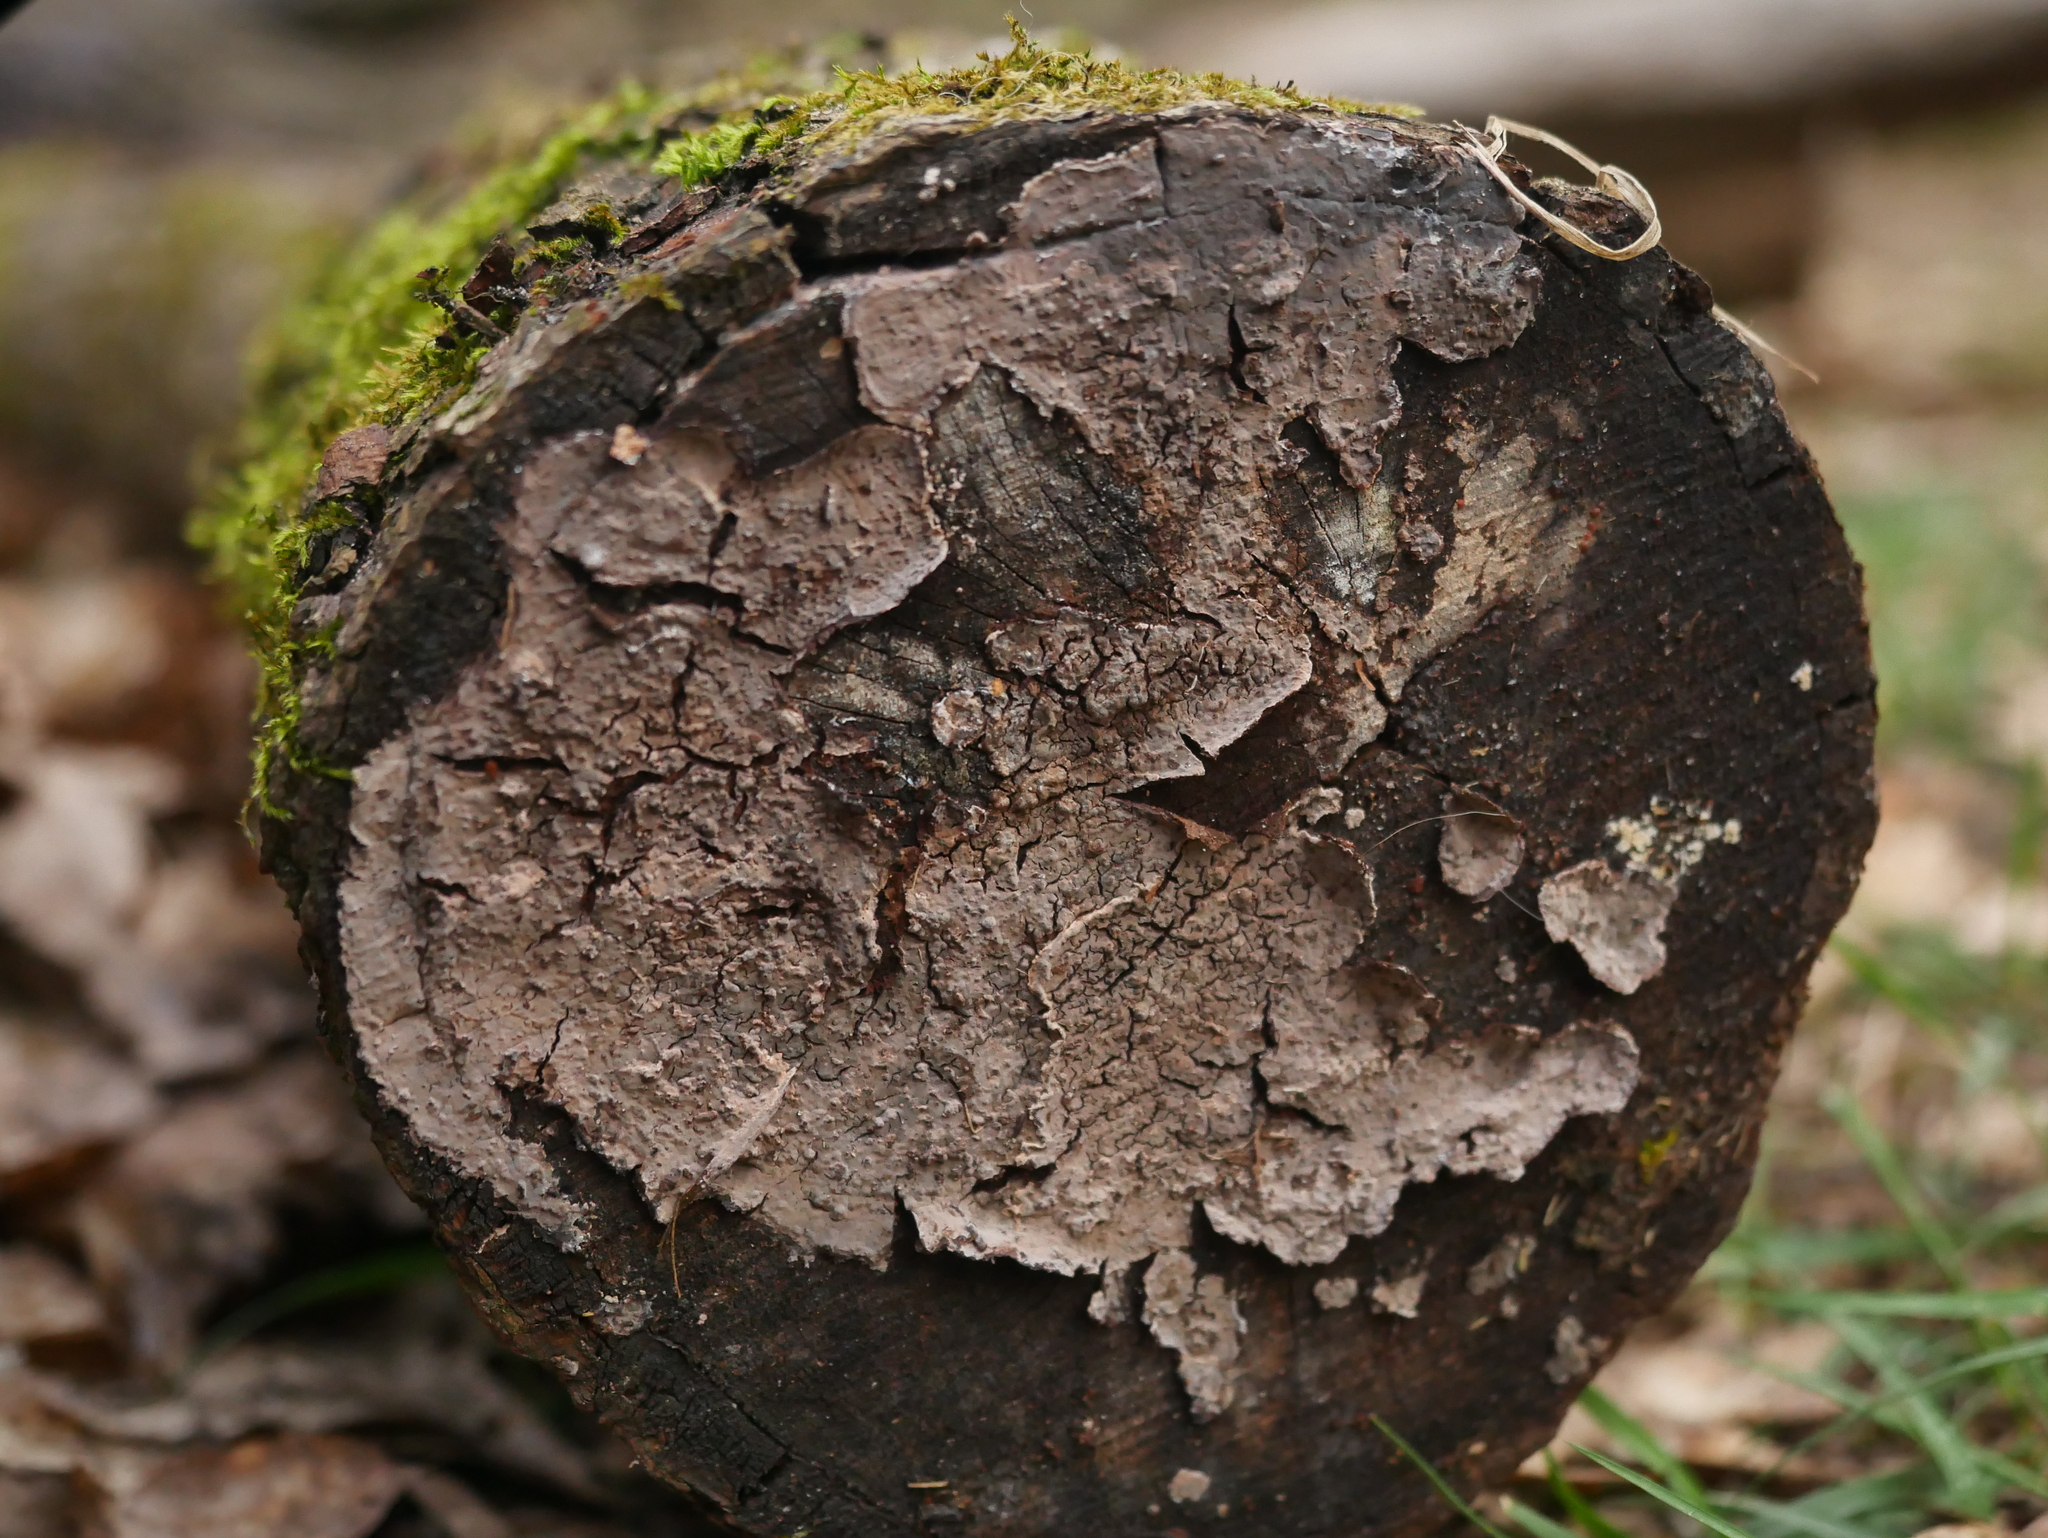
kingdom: Fungi
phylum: Basidiomycota
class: Agaricomycetes
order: Russulales
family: Peniophoraceae
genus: Peniophora
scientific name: Peniophora quercina
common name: Oak crust
